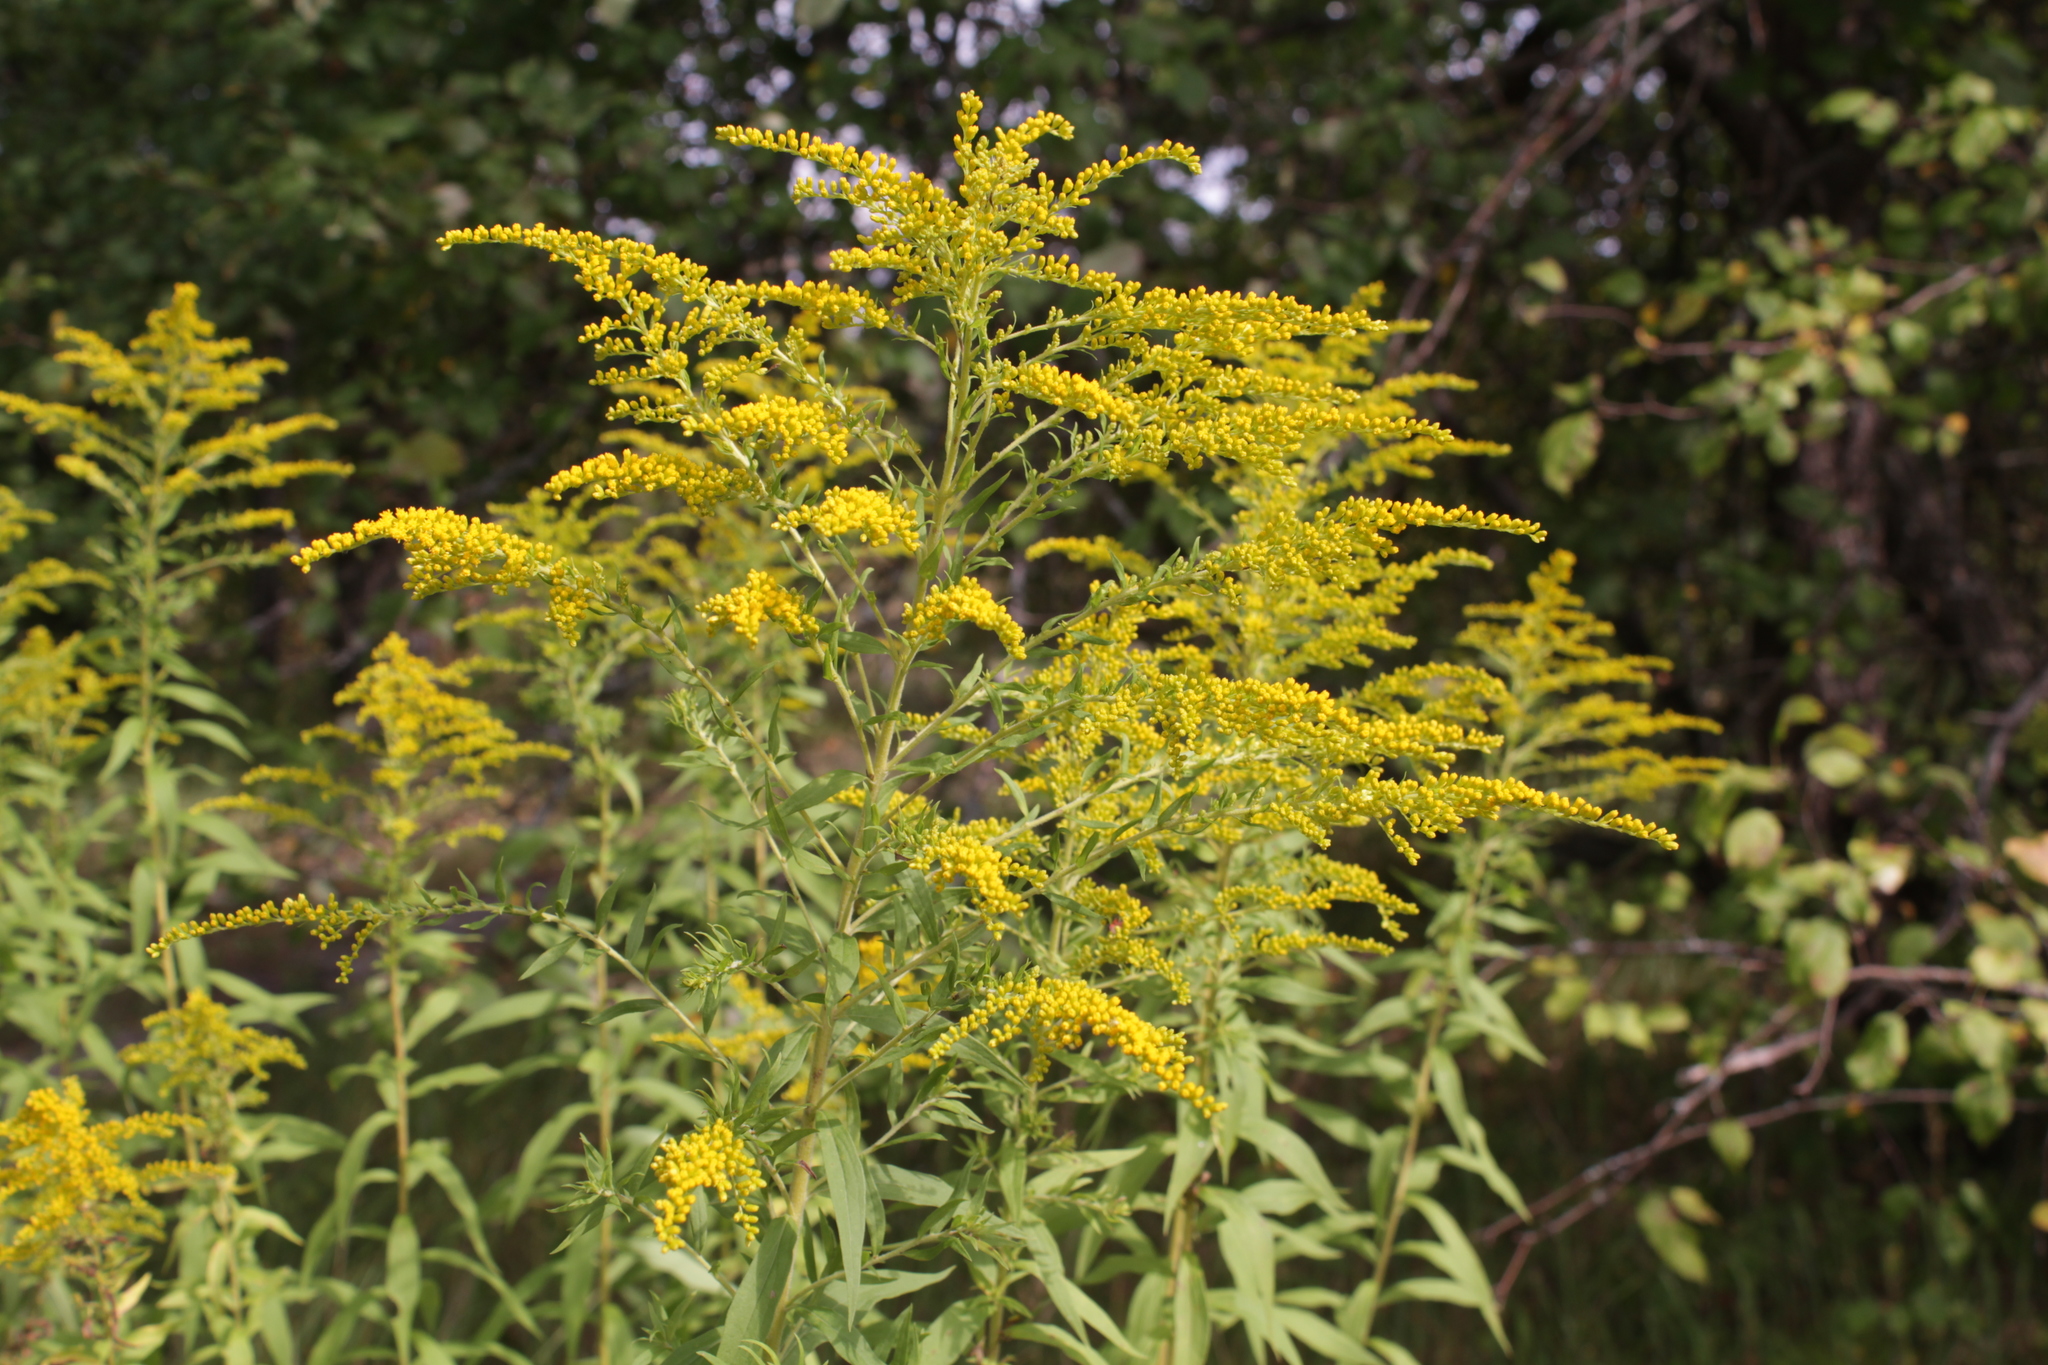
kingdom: Plantae
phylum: Tracheophyta
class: Magnoliopsida
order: Asterales
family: Asteraceae
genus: Solidago
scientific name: Solidago canadensis
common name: Canada goldenrod
